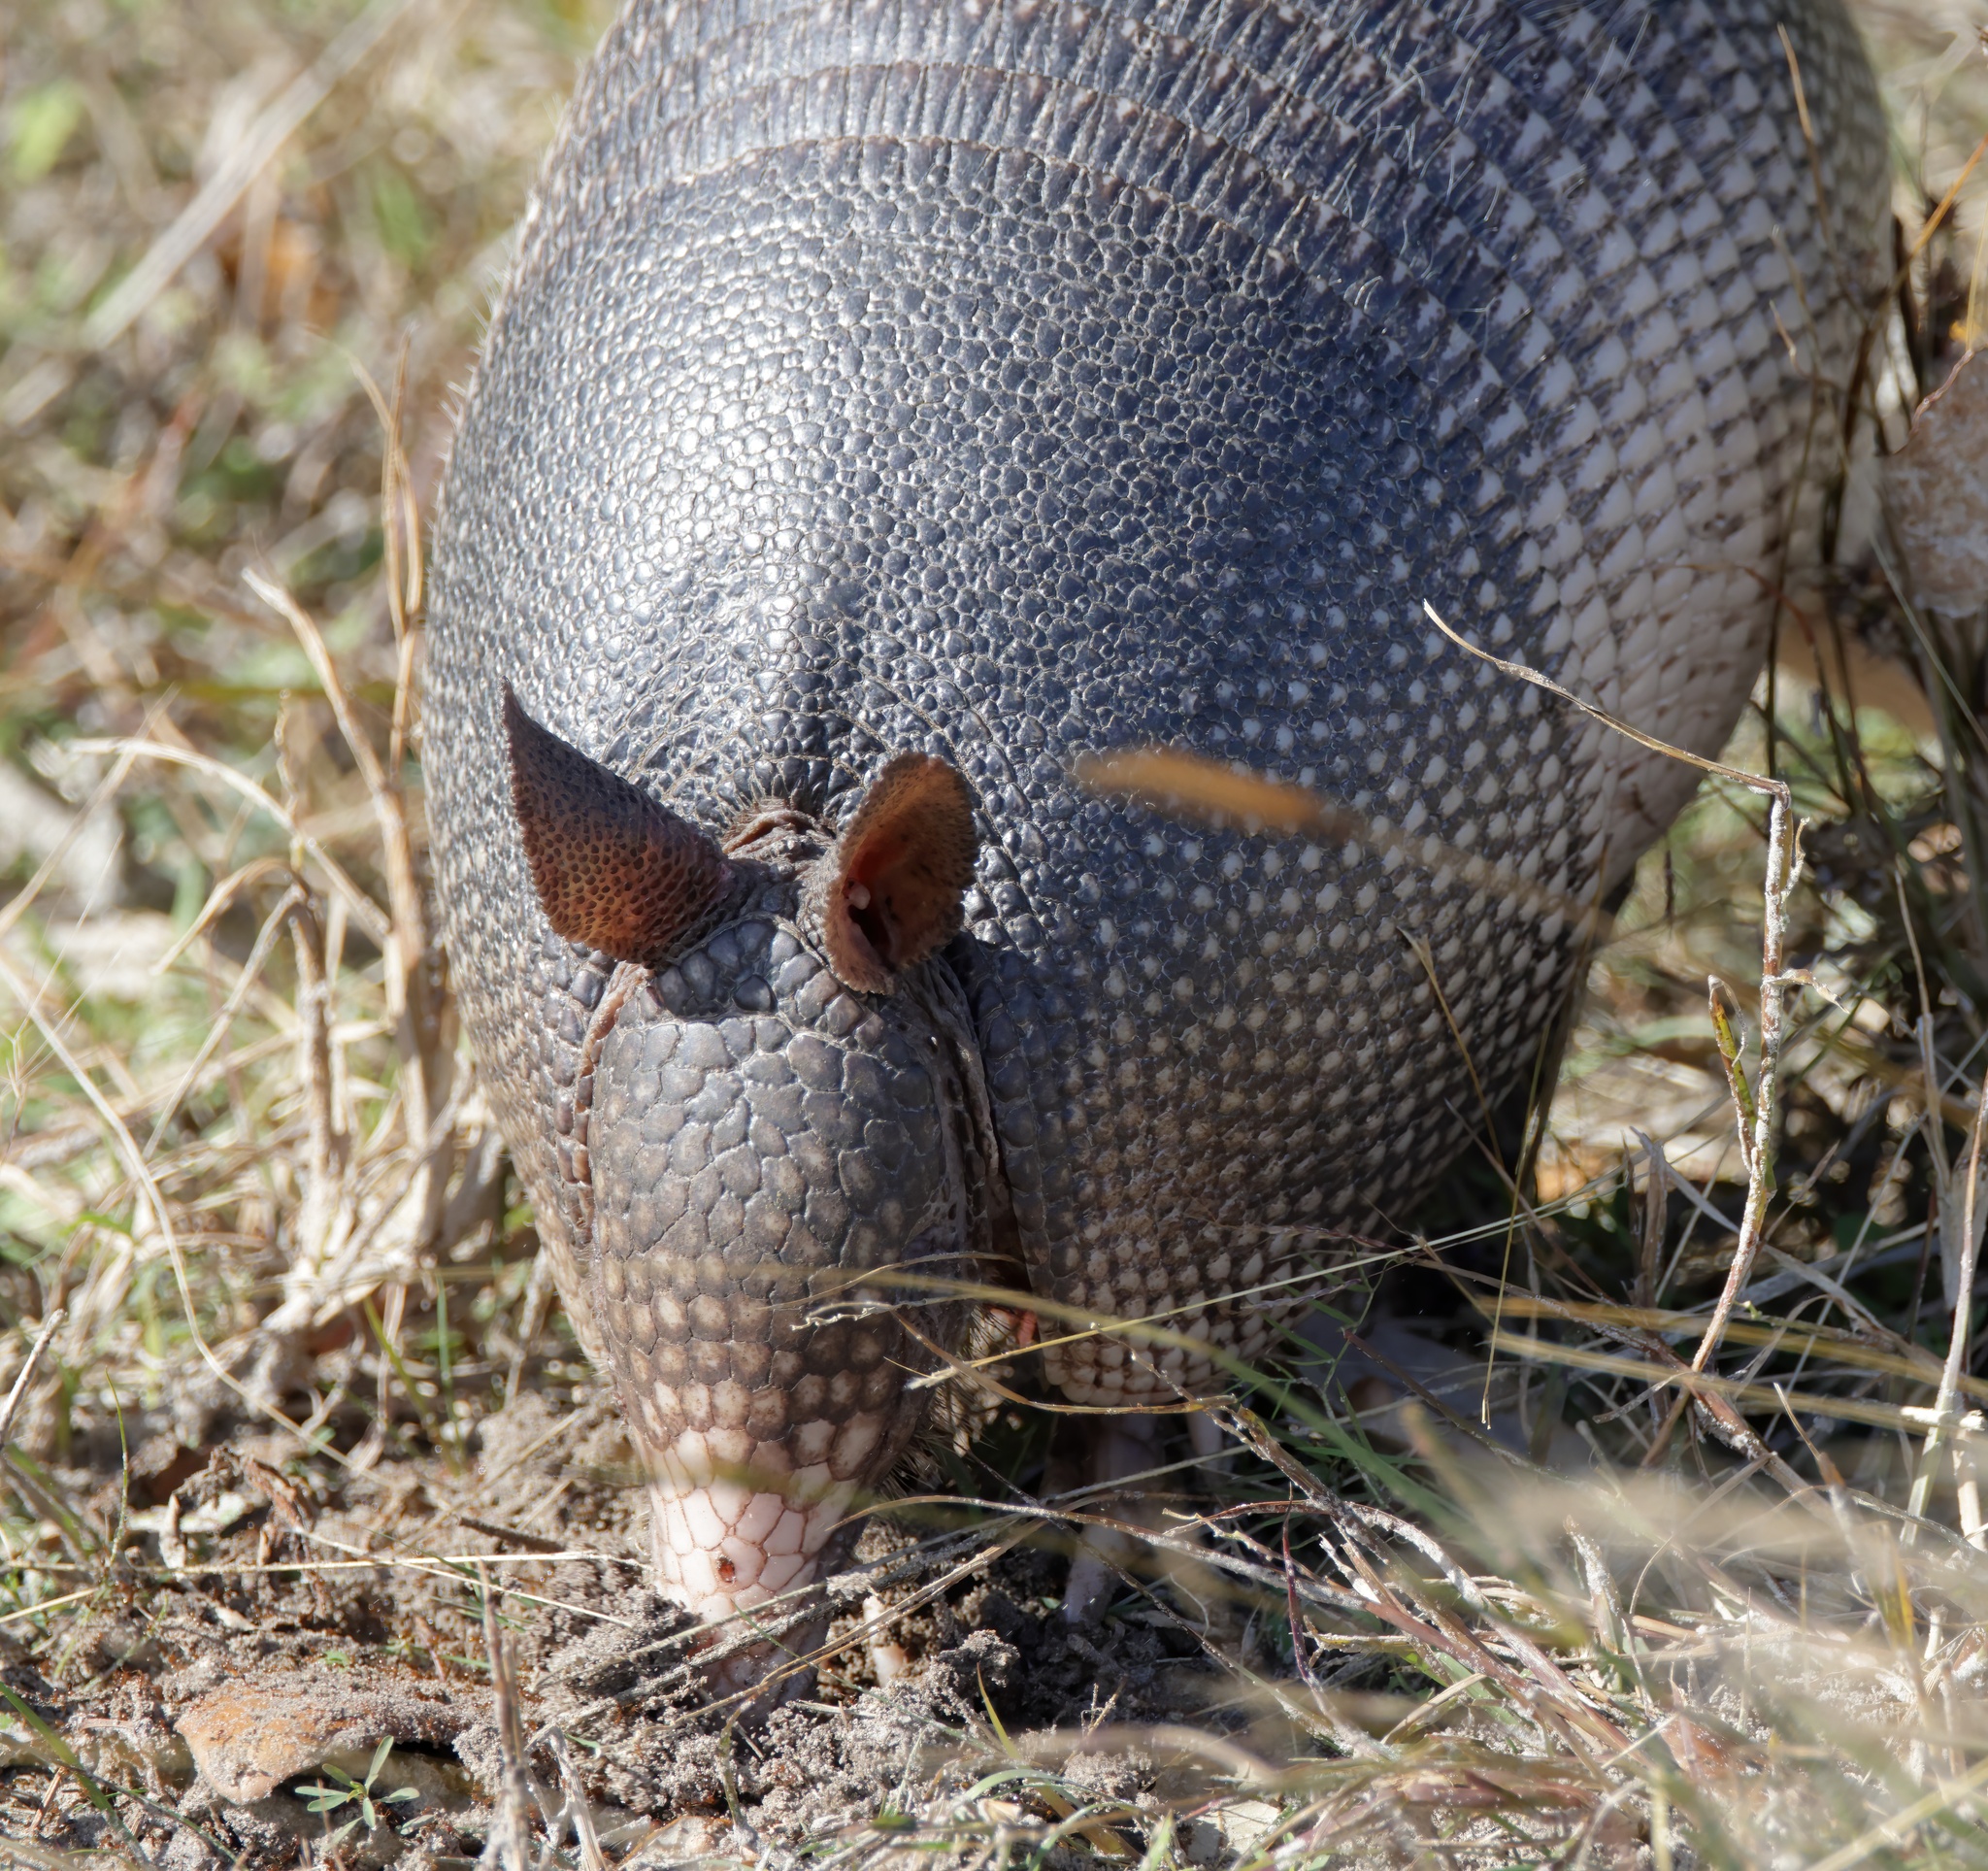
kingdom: Animalia
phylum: Chordata
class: Mammalia
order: Cingulata
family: Dasypodidae
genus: Dasypus
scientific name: Dasypus novemcinctus
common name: Nine-banded armadillo
